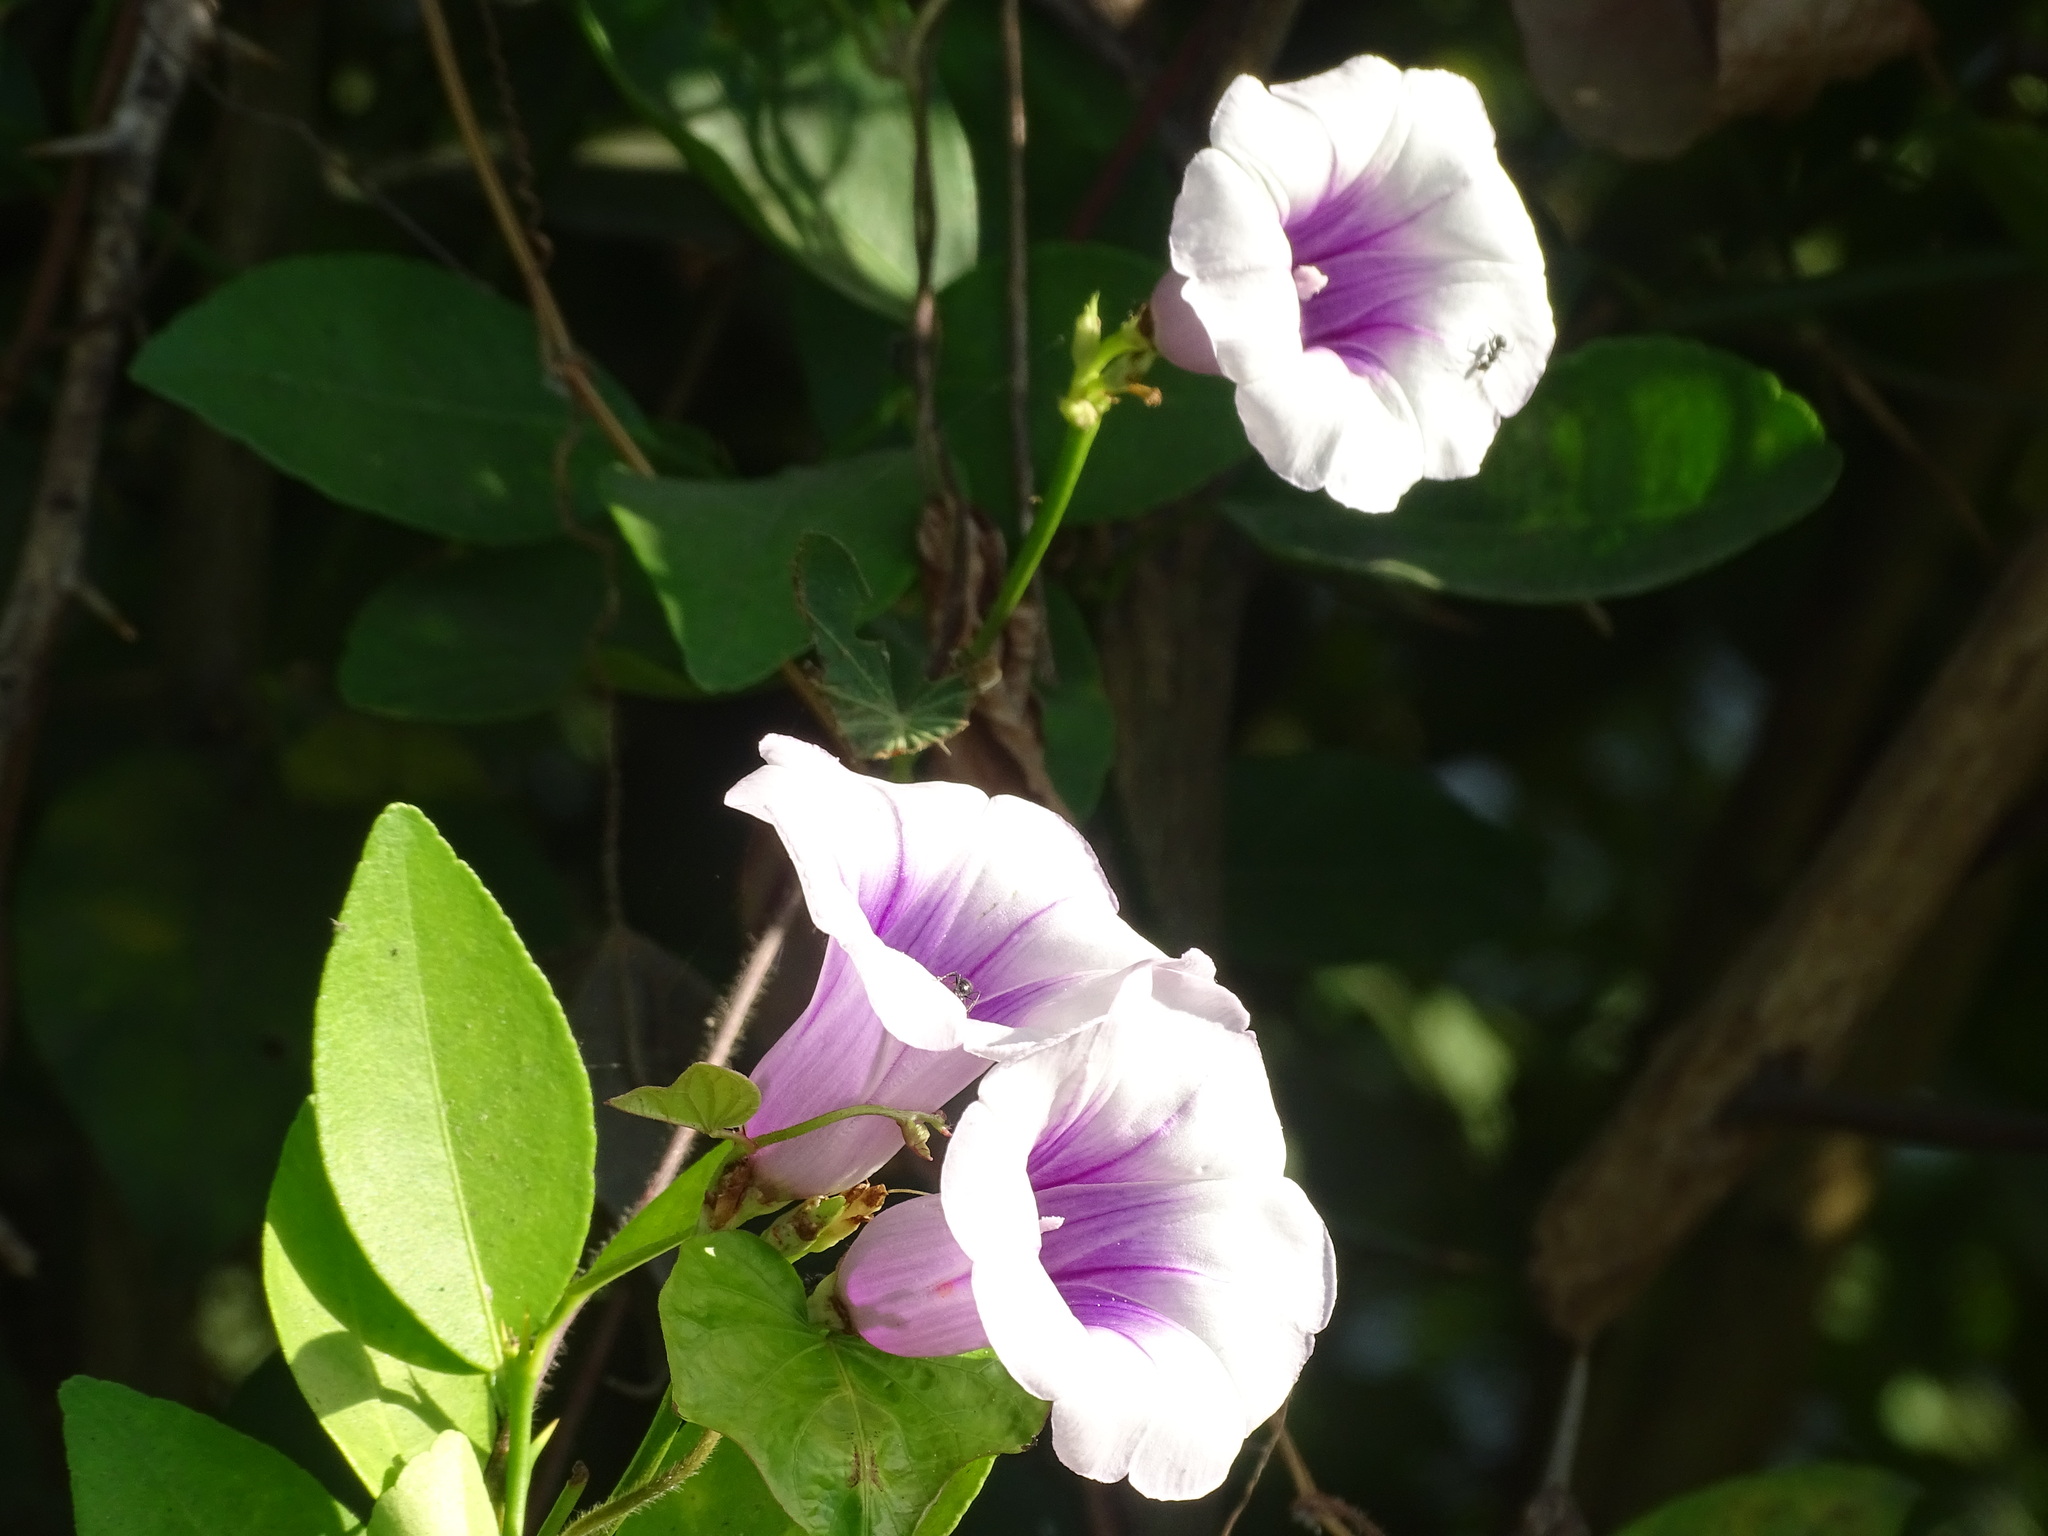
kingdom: Plantae
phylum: Tracheophyta
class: Magnoliopsida
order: Solanales
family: Convolvulaceae
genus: Ipomoea
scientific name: Ipomoea batatas
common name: Sweet-potato
